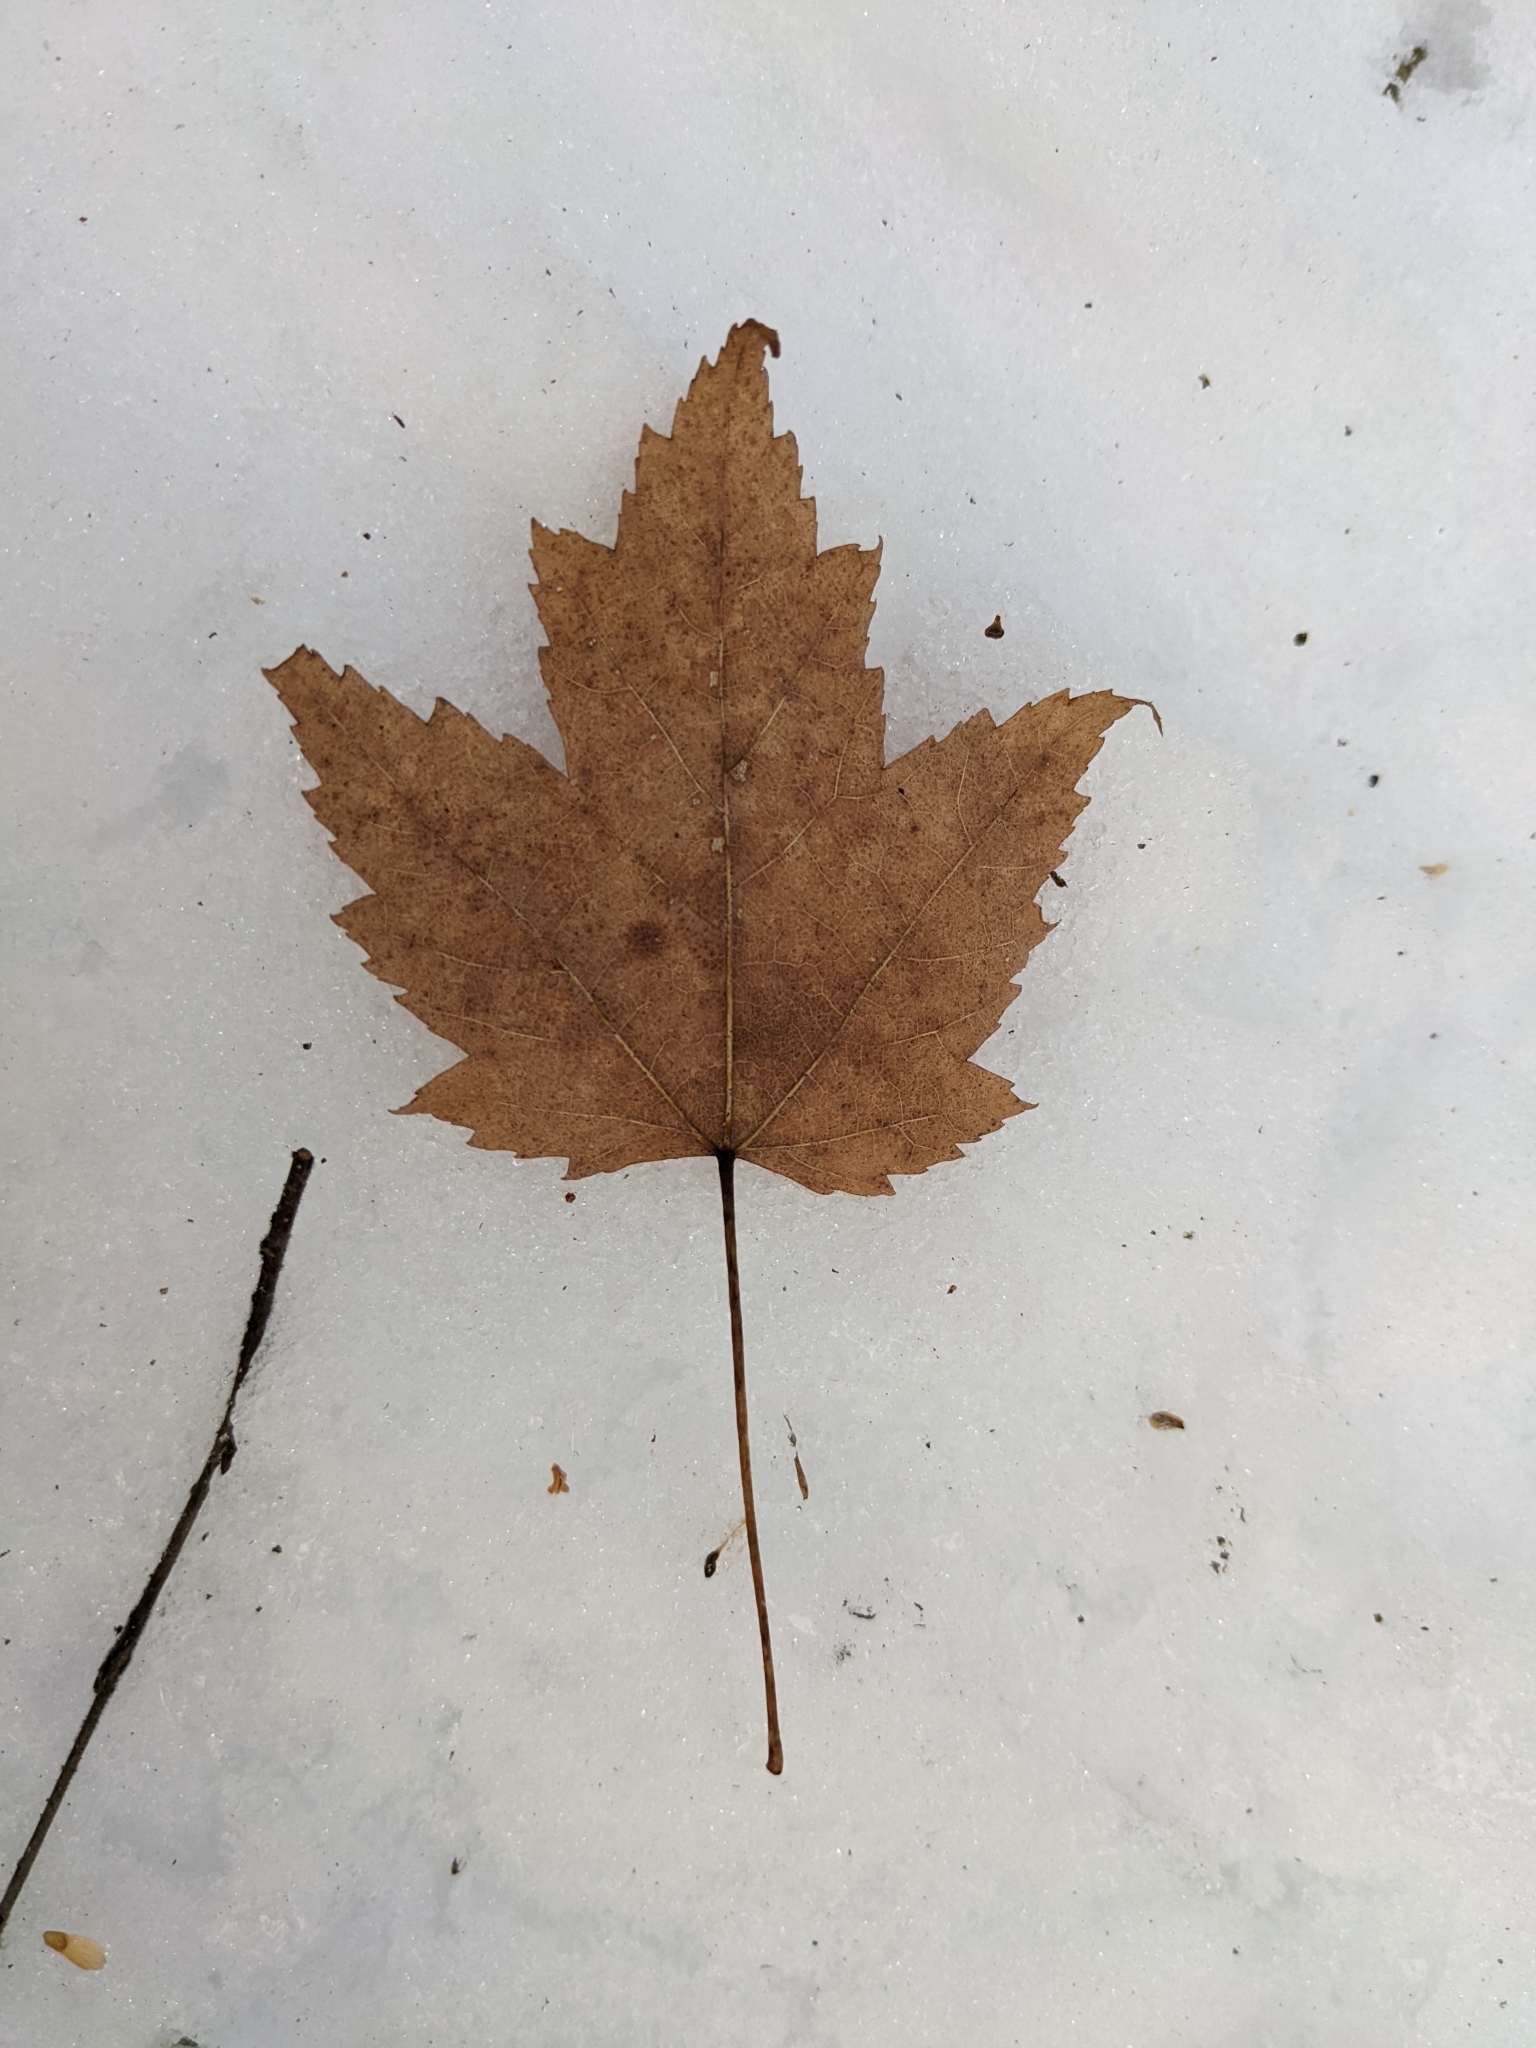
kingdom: Plantae
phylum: Tracheophyta
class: Magnoliopsida
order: Sapindales
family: Sapindaceae
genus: Acer
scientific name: Acer rubrum
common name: Red maple
